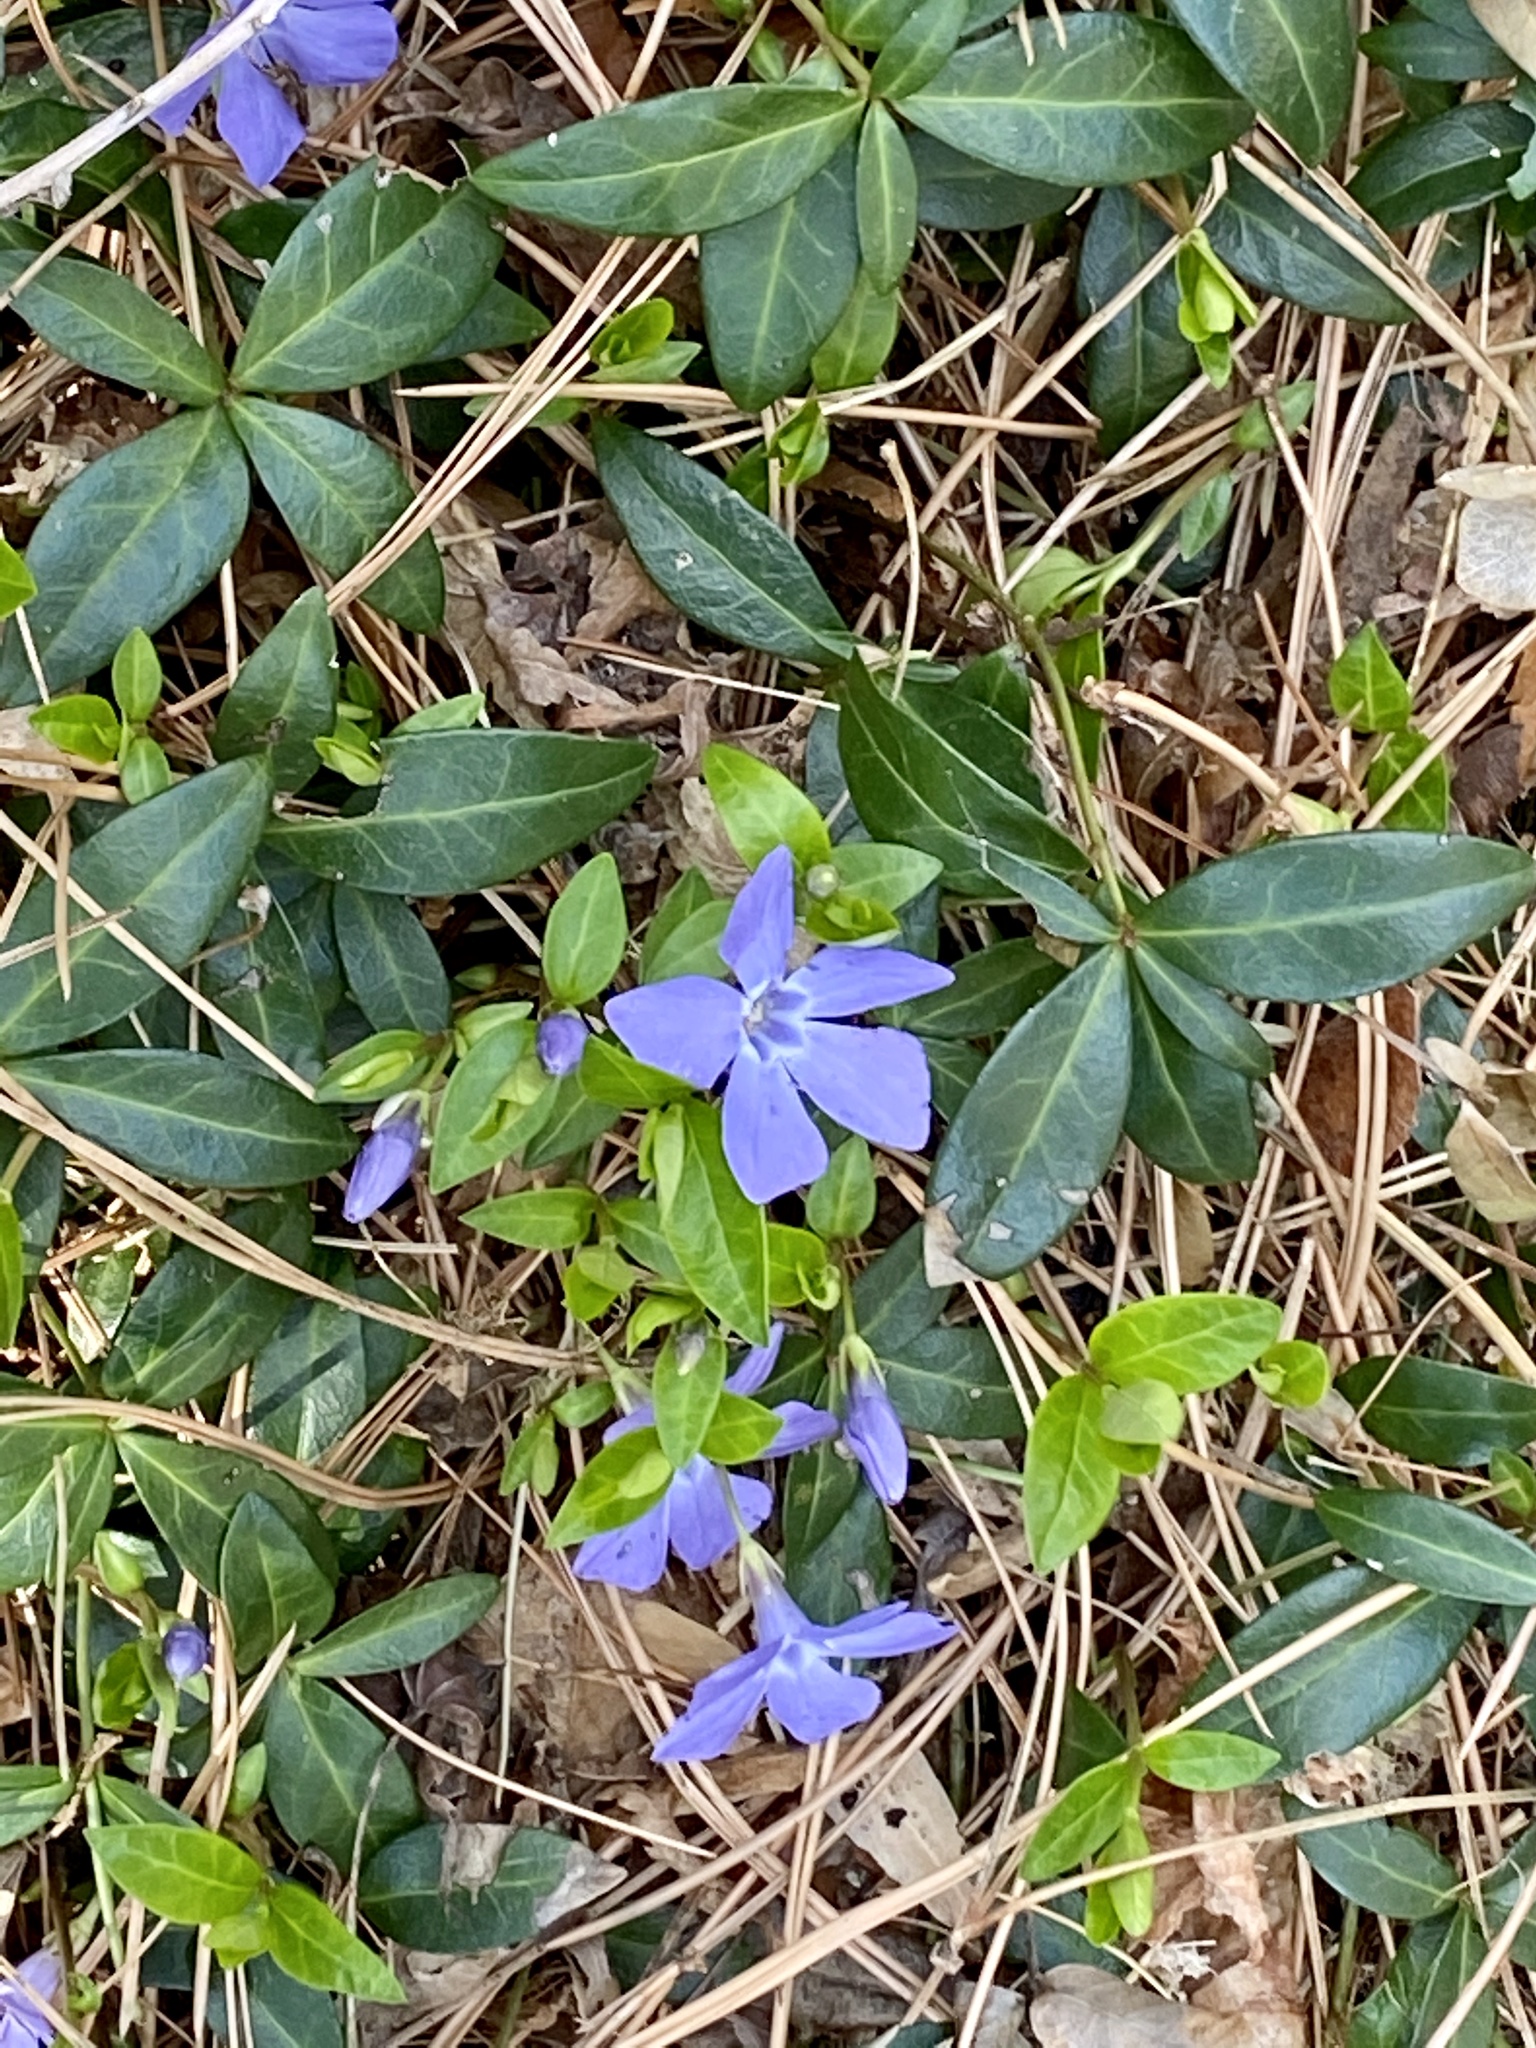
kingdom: Plantae
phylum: Tracheophyta
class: Magnoliopsida
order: Gentianales
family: Apocynaceae
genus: Vinca
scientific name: Vinca minor
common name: Lesser periwinkle
